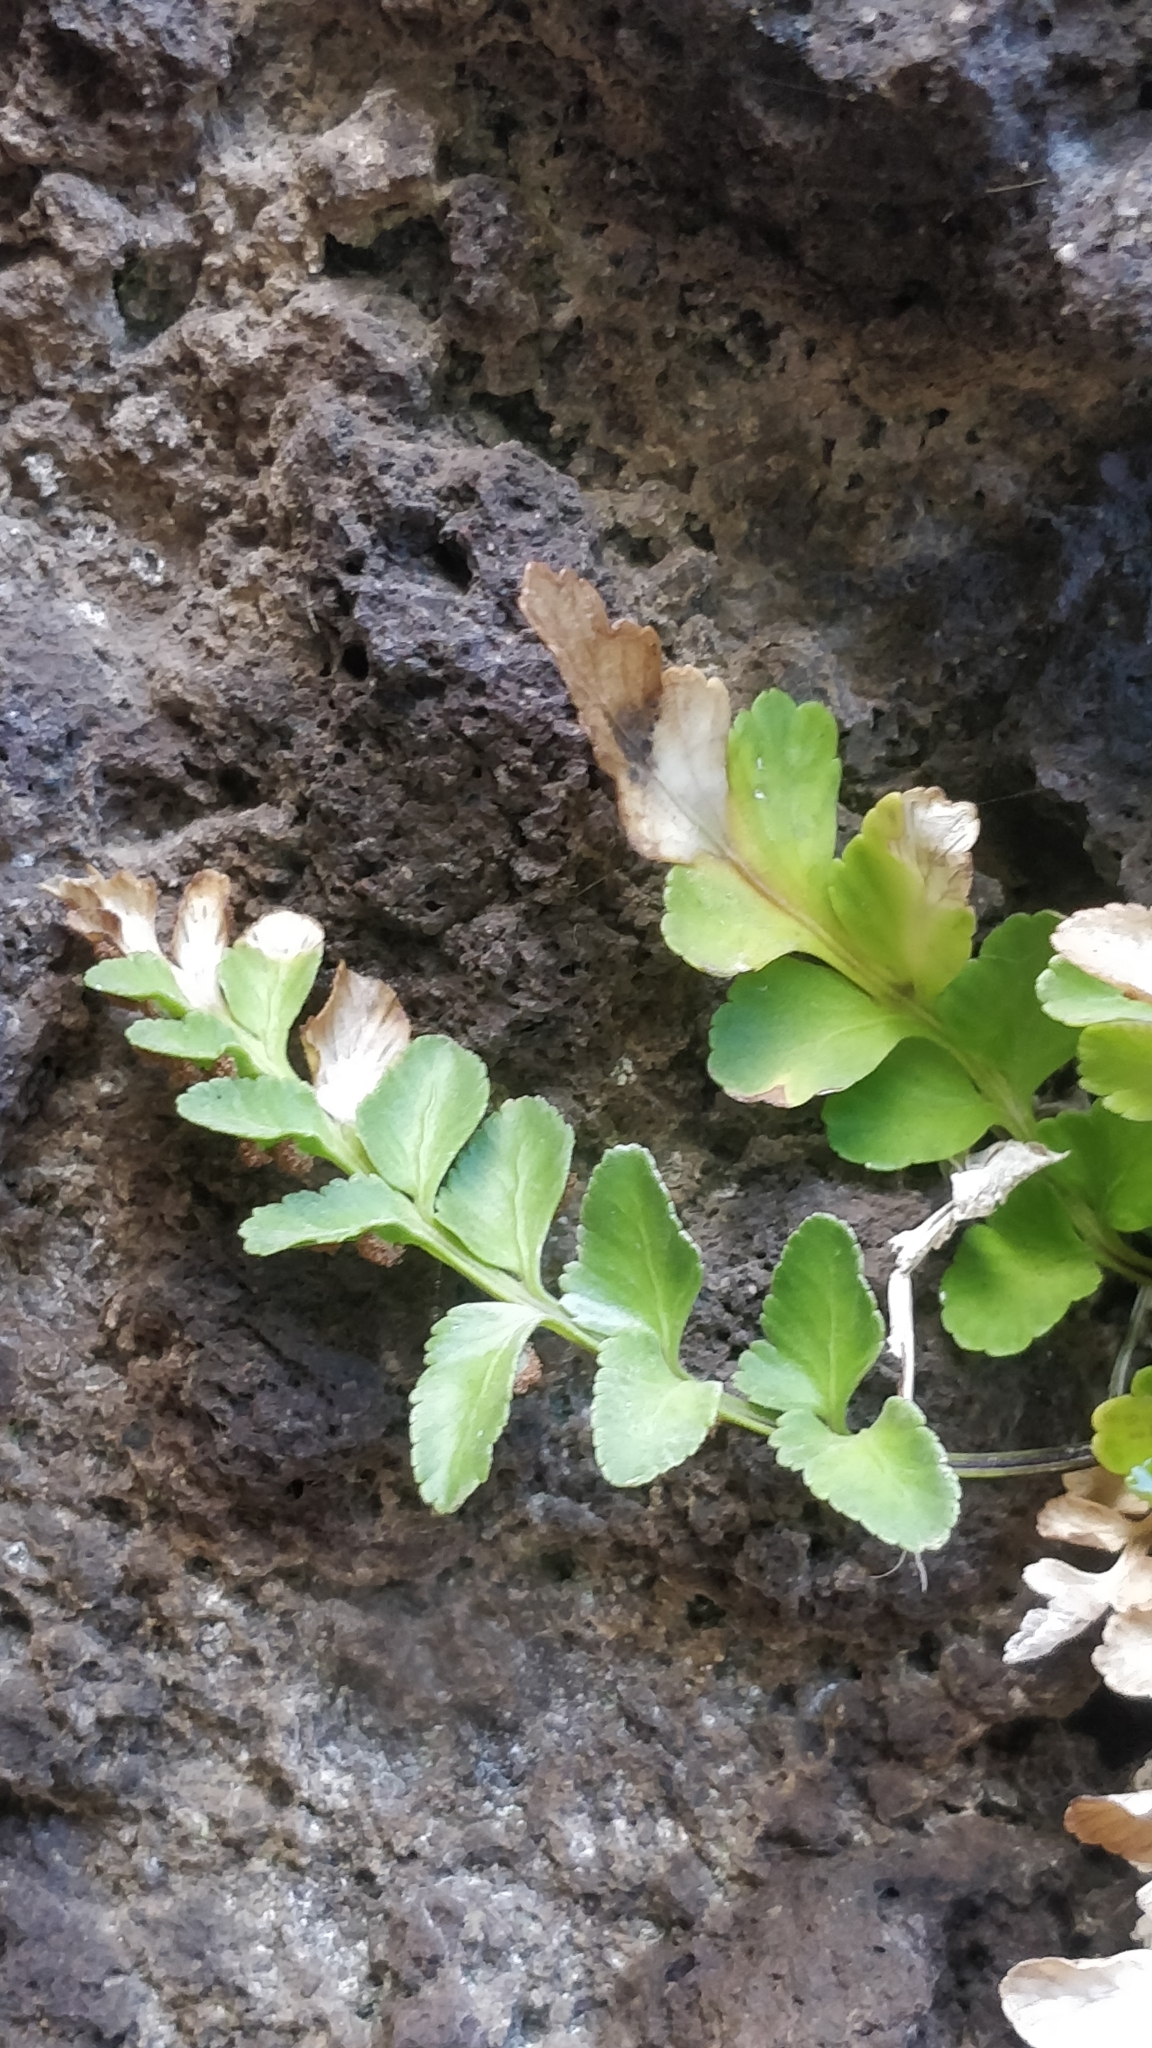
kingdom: Plantae
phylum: Tracheophyta
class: Polypodiopsida
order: Polypodiales
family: Aspleniaceae
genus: Asplenium
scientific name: Asplenium marinum
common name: Sea spleenwort
